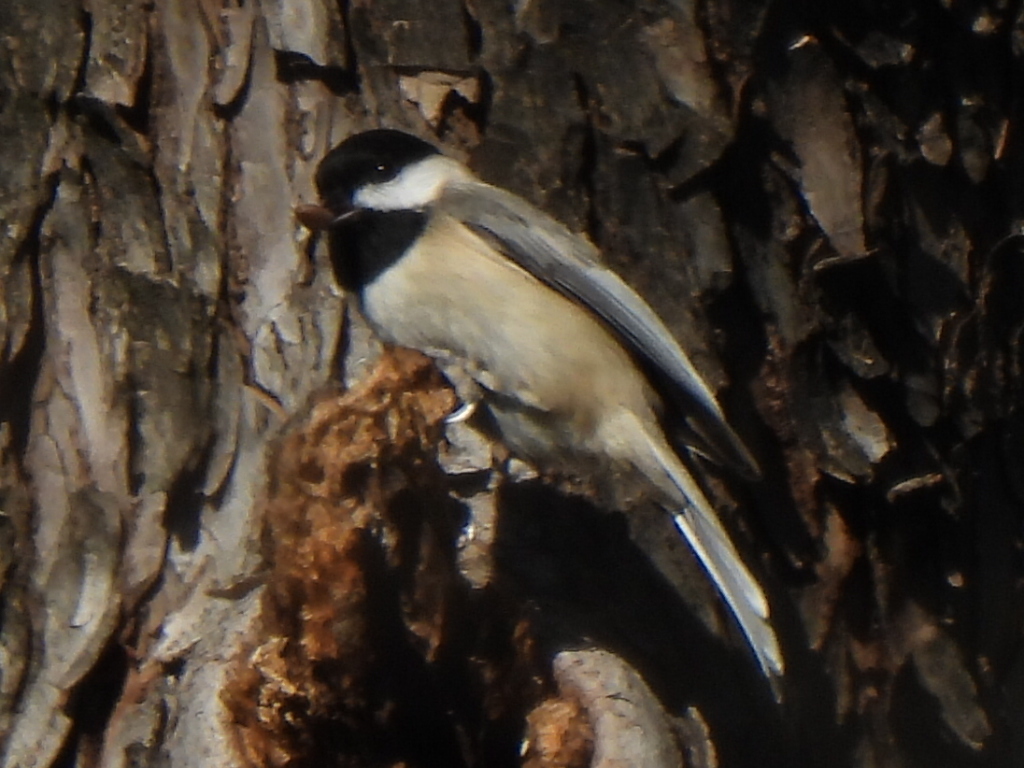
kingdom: Animalia
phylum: Chordata
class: Aves
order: Passeriformes
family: Paridae
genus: Poecile
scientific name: Poecile carolinensis
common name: Carolina chickadee
